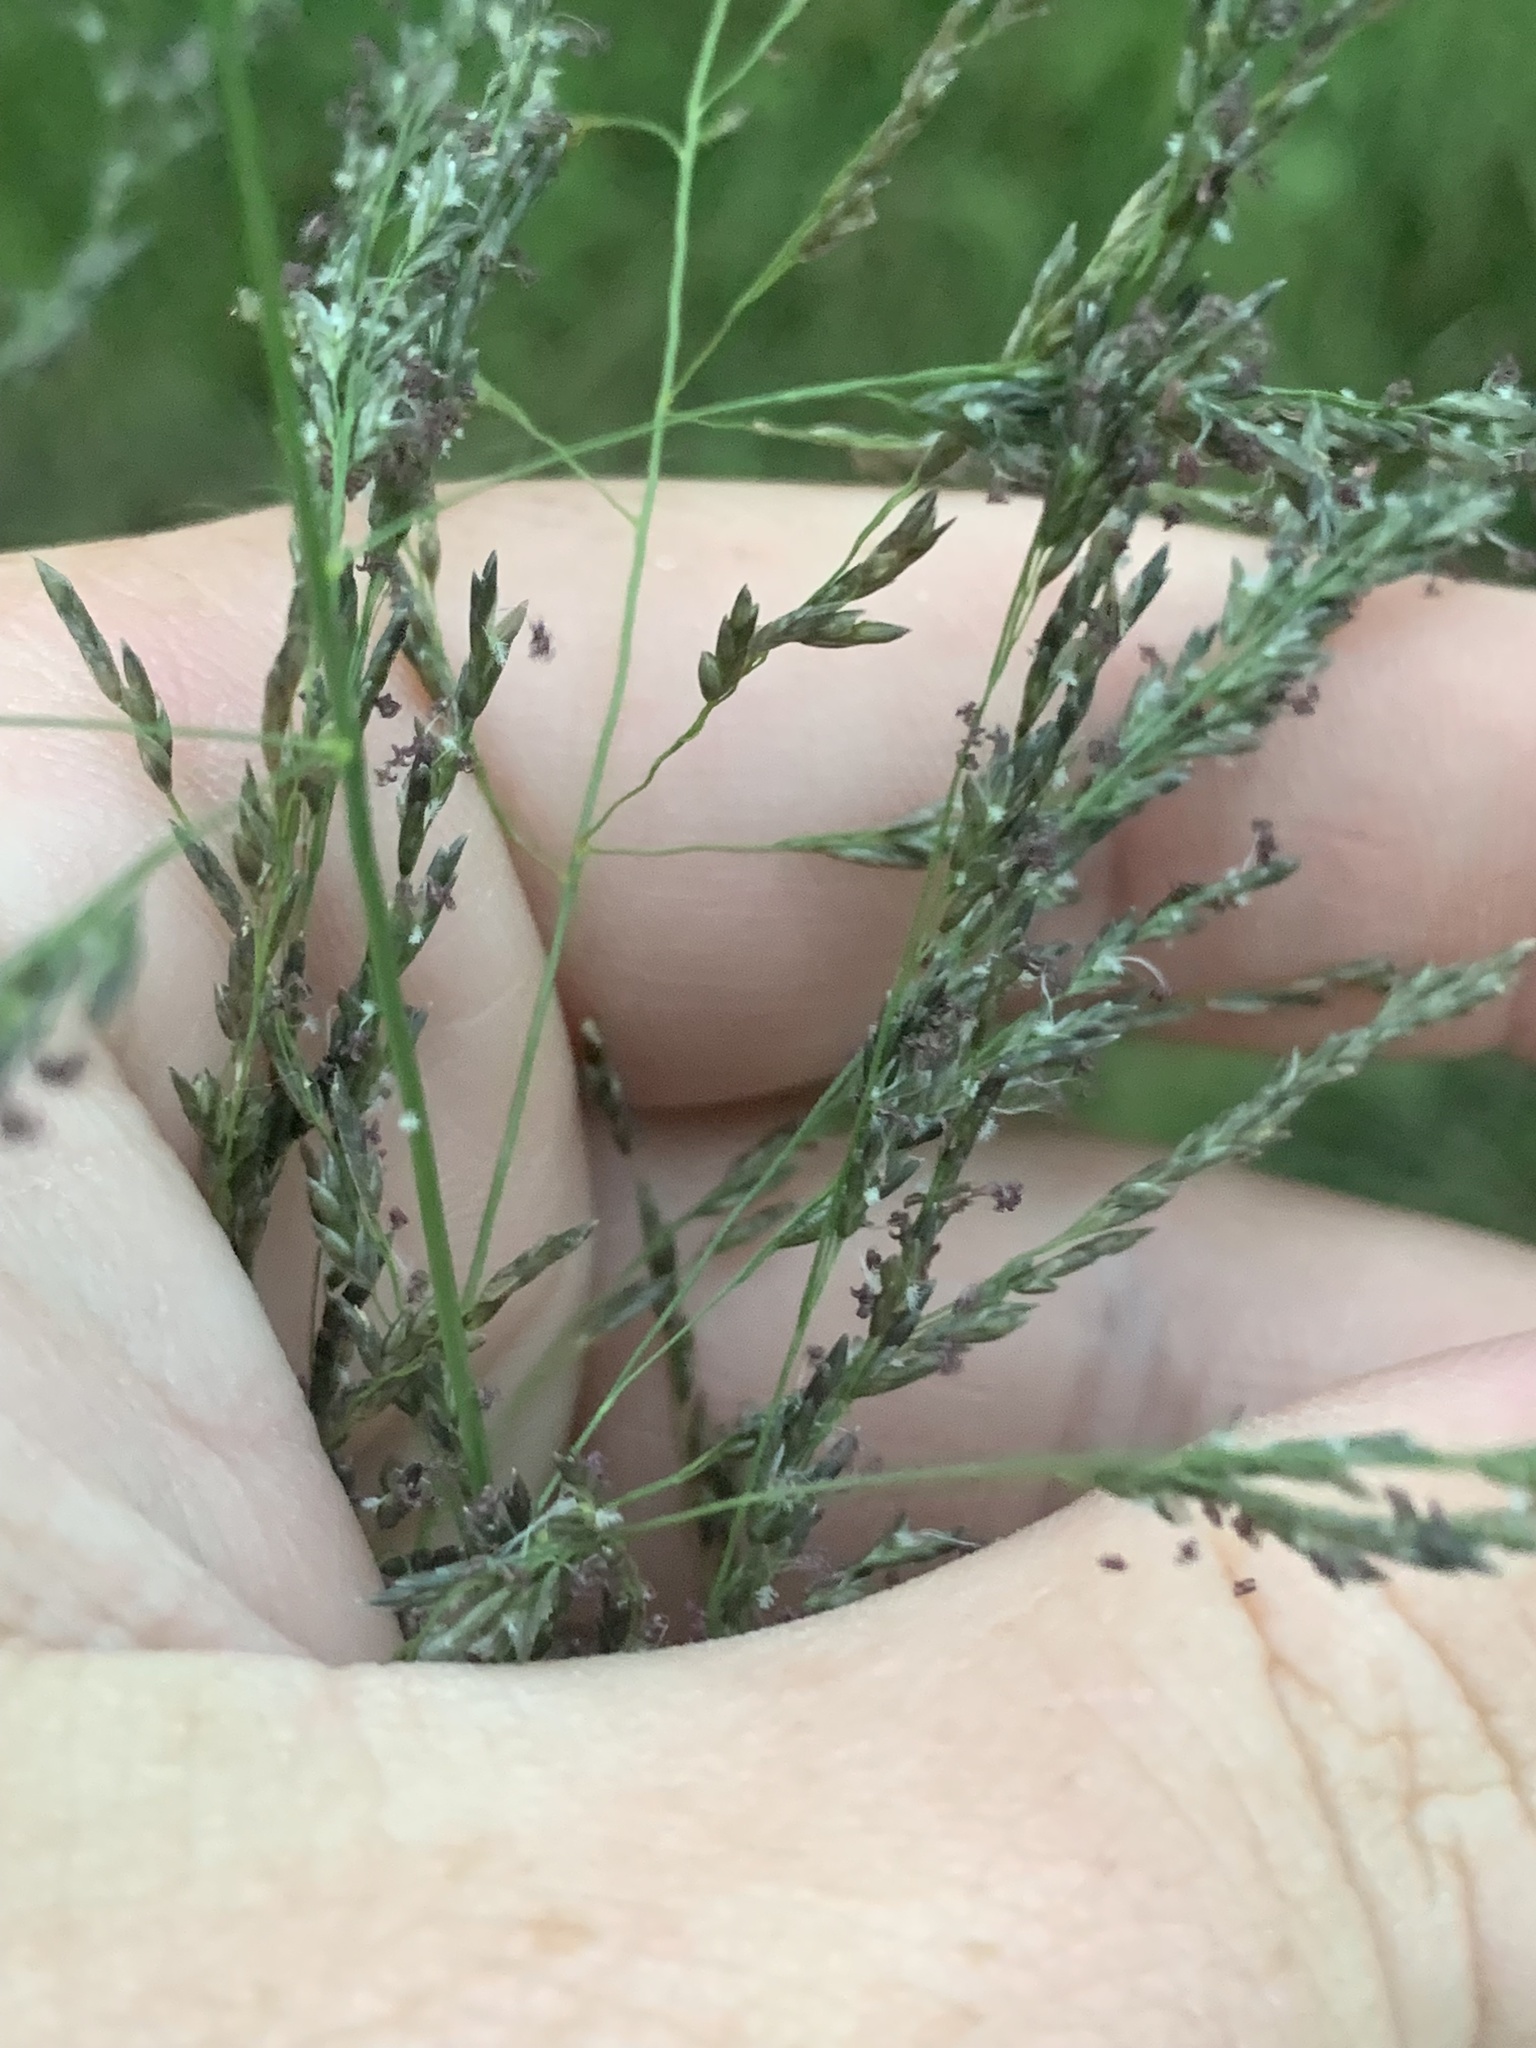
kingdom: Plantae
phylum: Tracheophyta
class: Liliopsida
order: Poales
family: Poaceae
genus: Eragrostis
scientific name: Eragrostis curvula
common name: African love-grass
